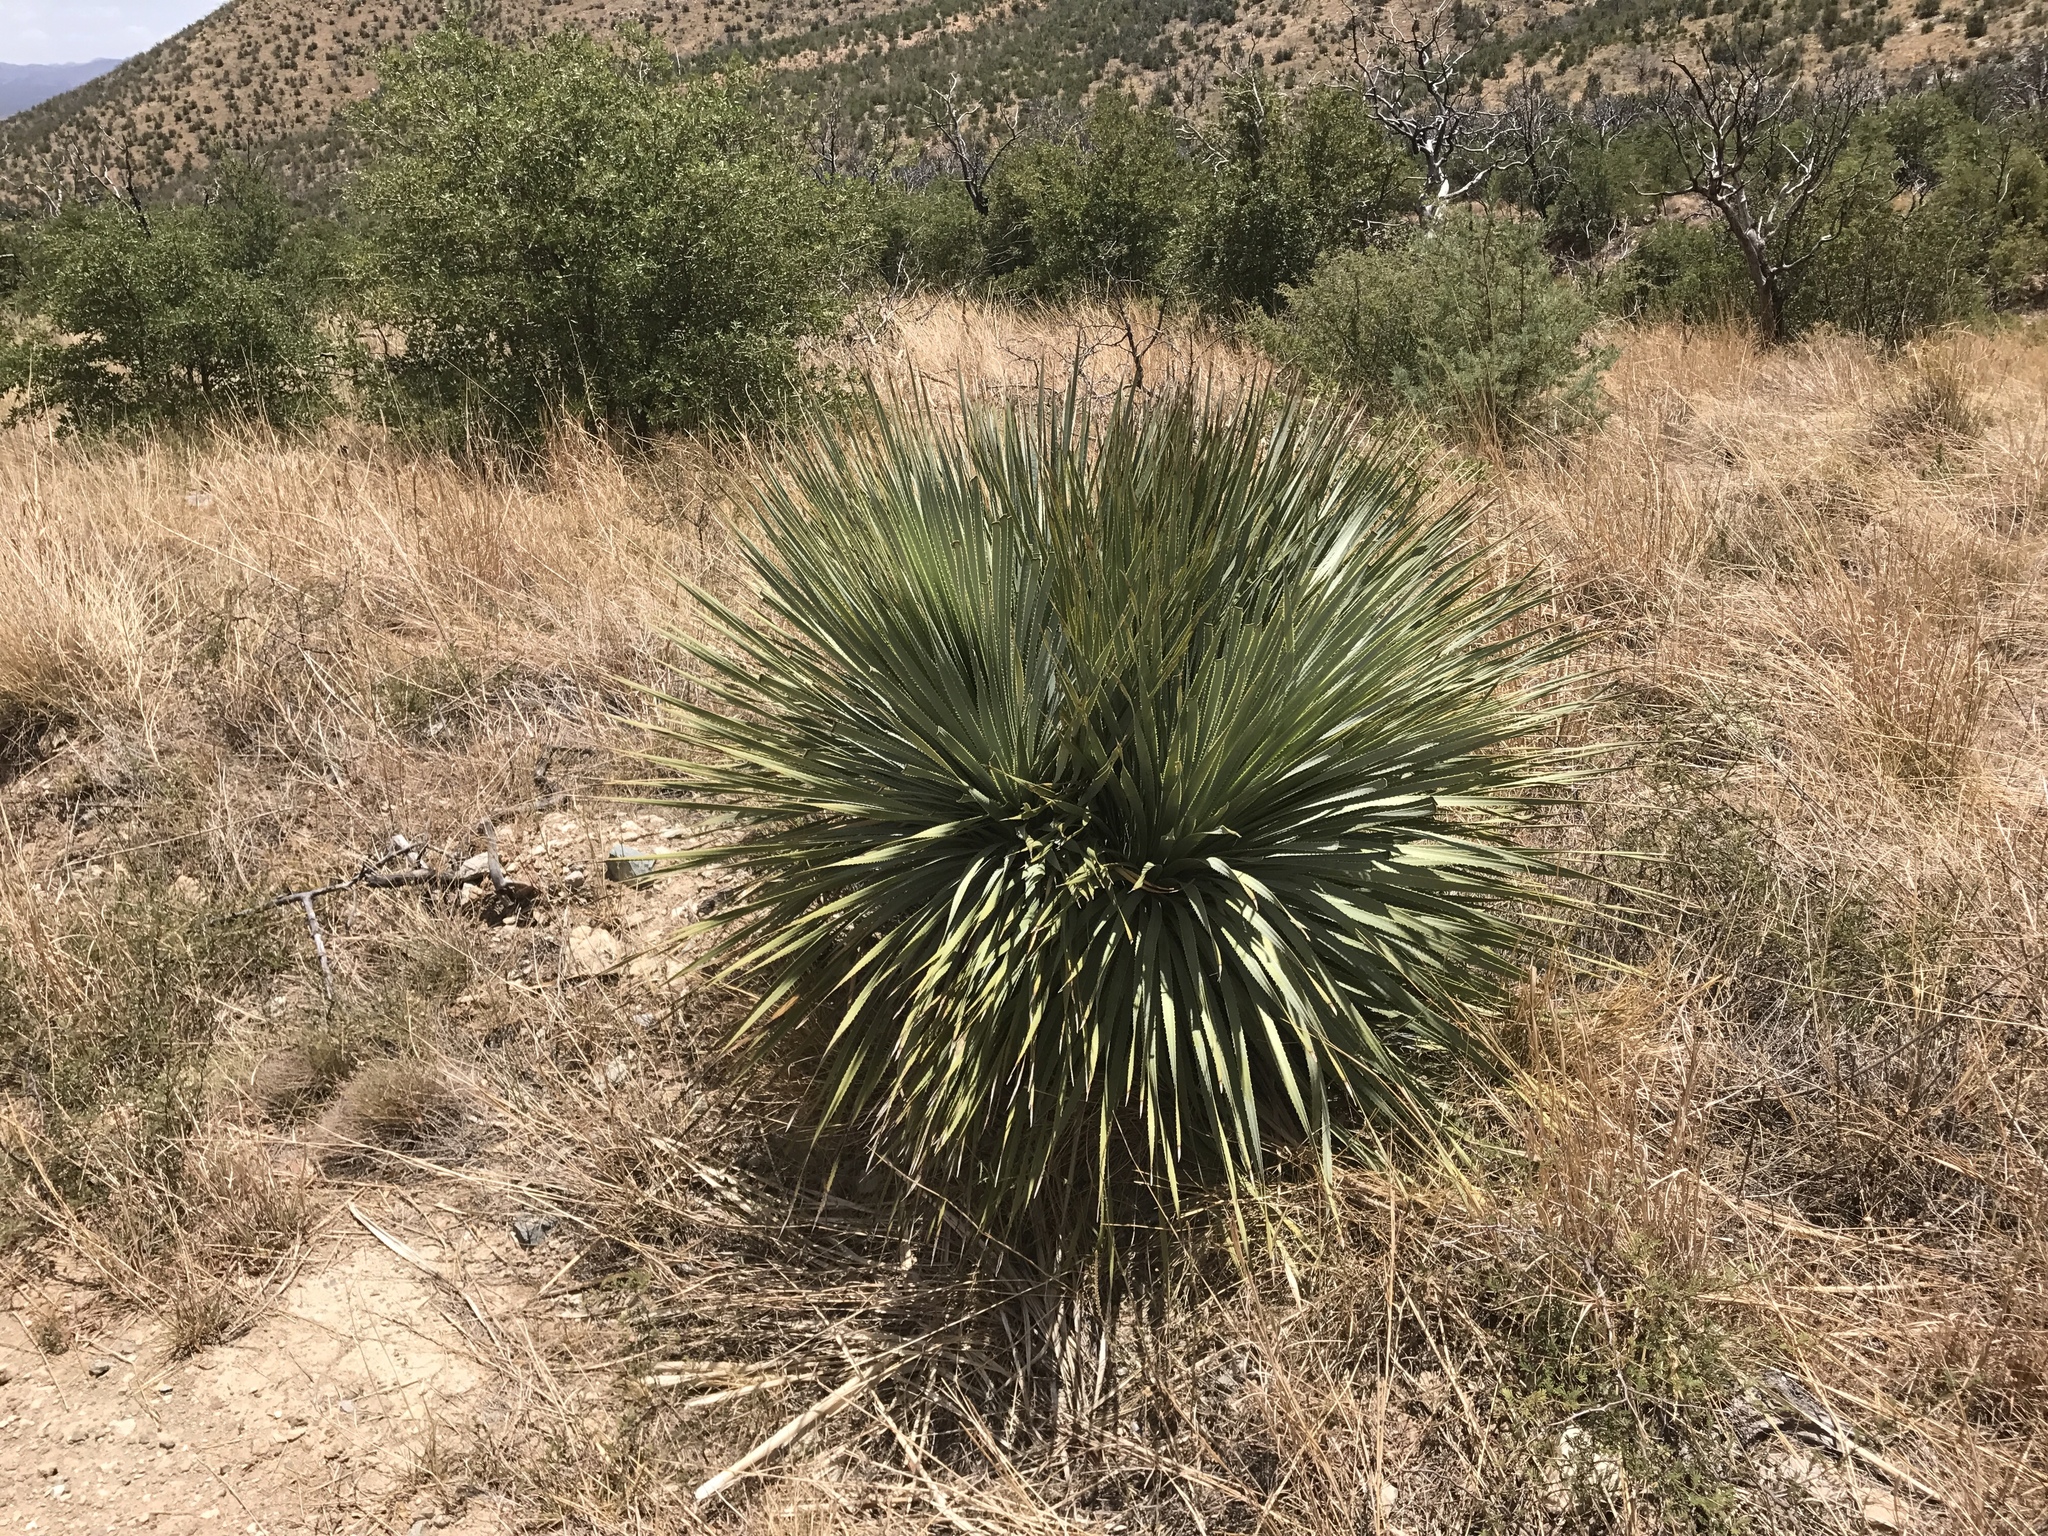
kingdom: Plantae
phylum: Tracheophyta
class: Liliopsida
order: Asparagales
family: Asparagaceae
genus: Dasylirion
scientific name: Dasylirion wheeleri
